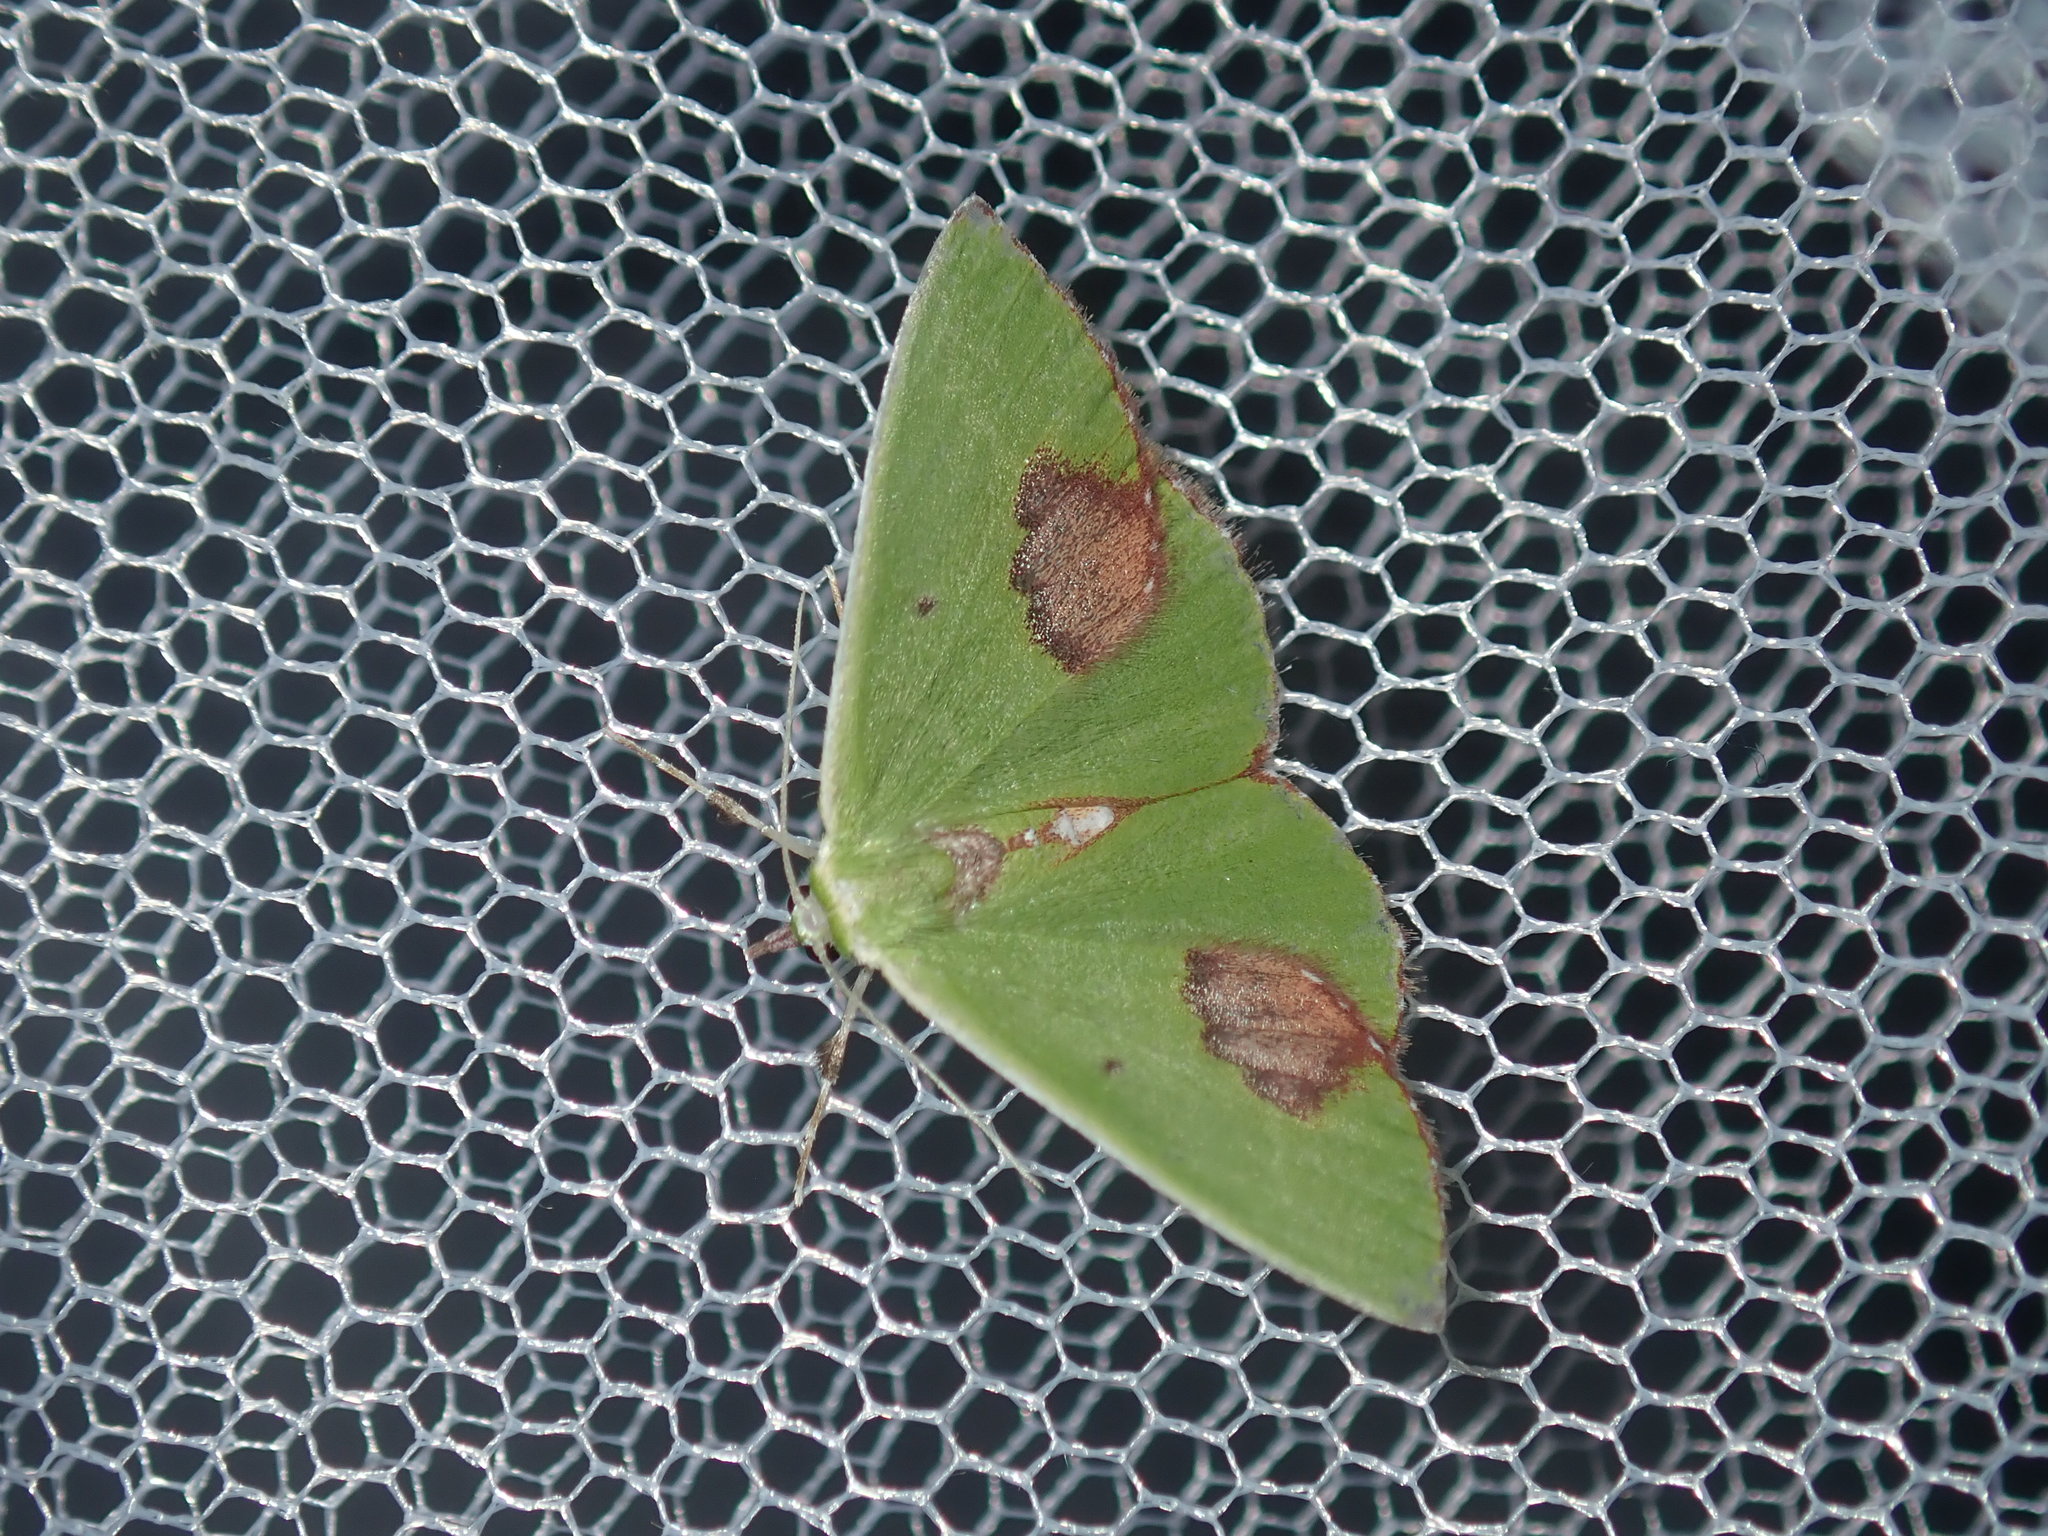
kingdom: Animalia
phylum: Arthropoda
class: Insecta
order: Lepidoptera
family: Geometridae
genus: Comibaena
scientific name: Comibaena mariae
